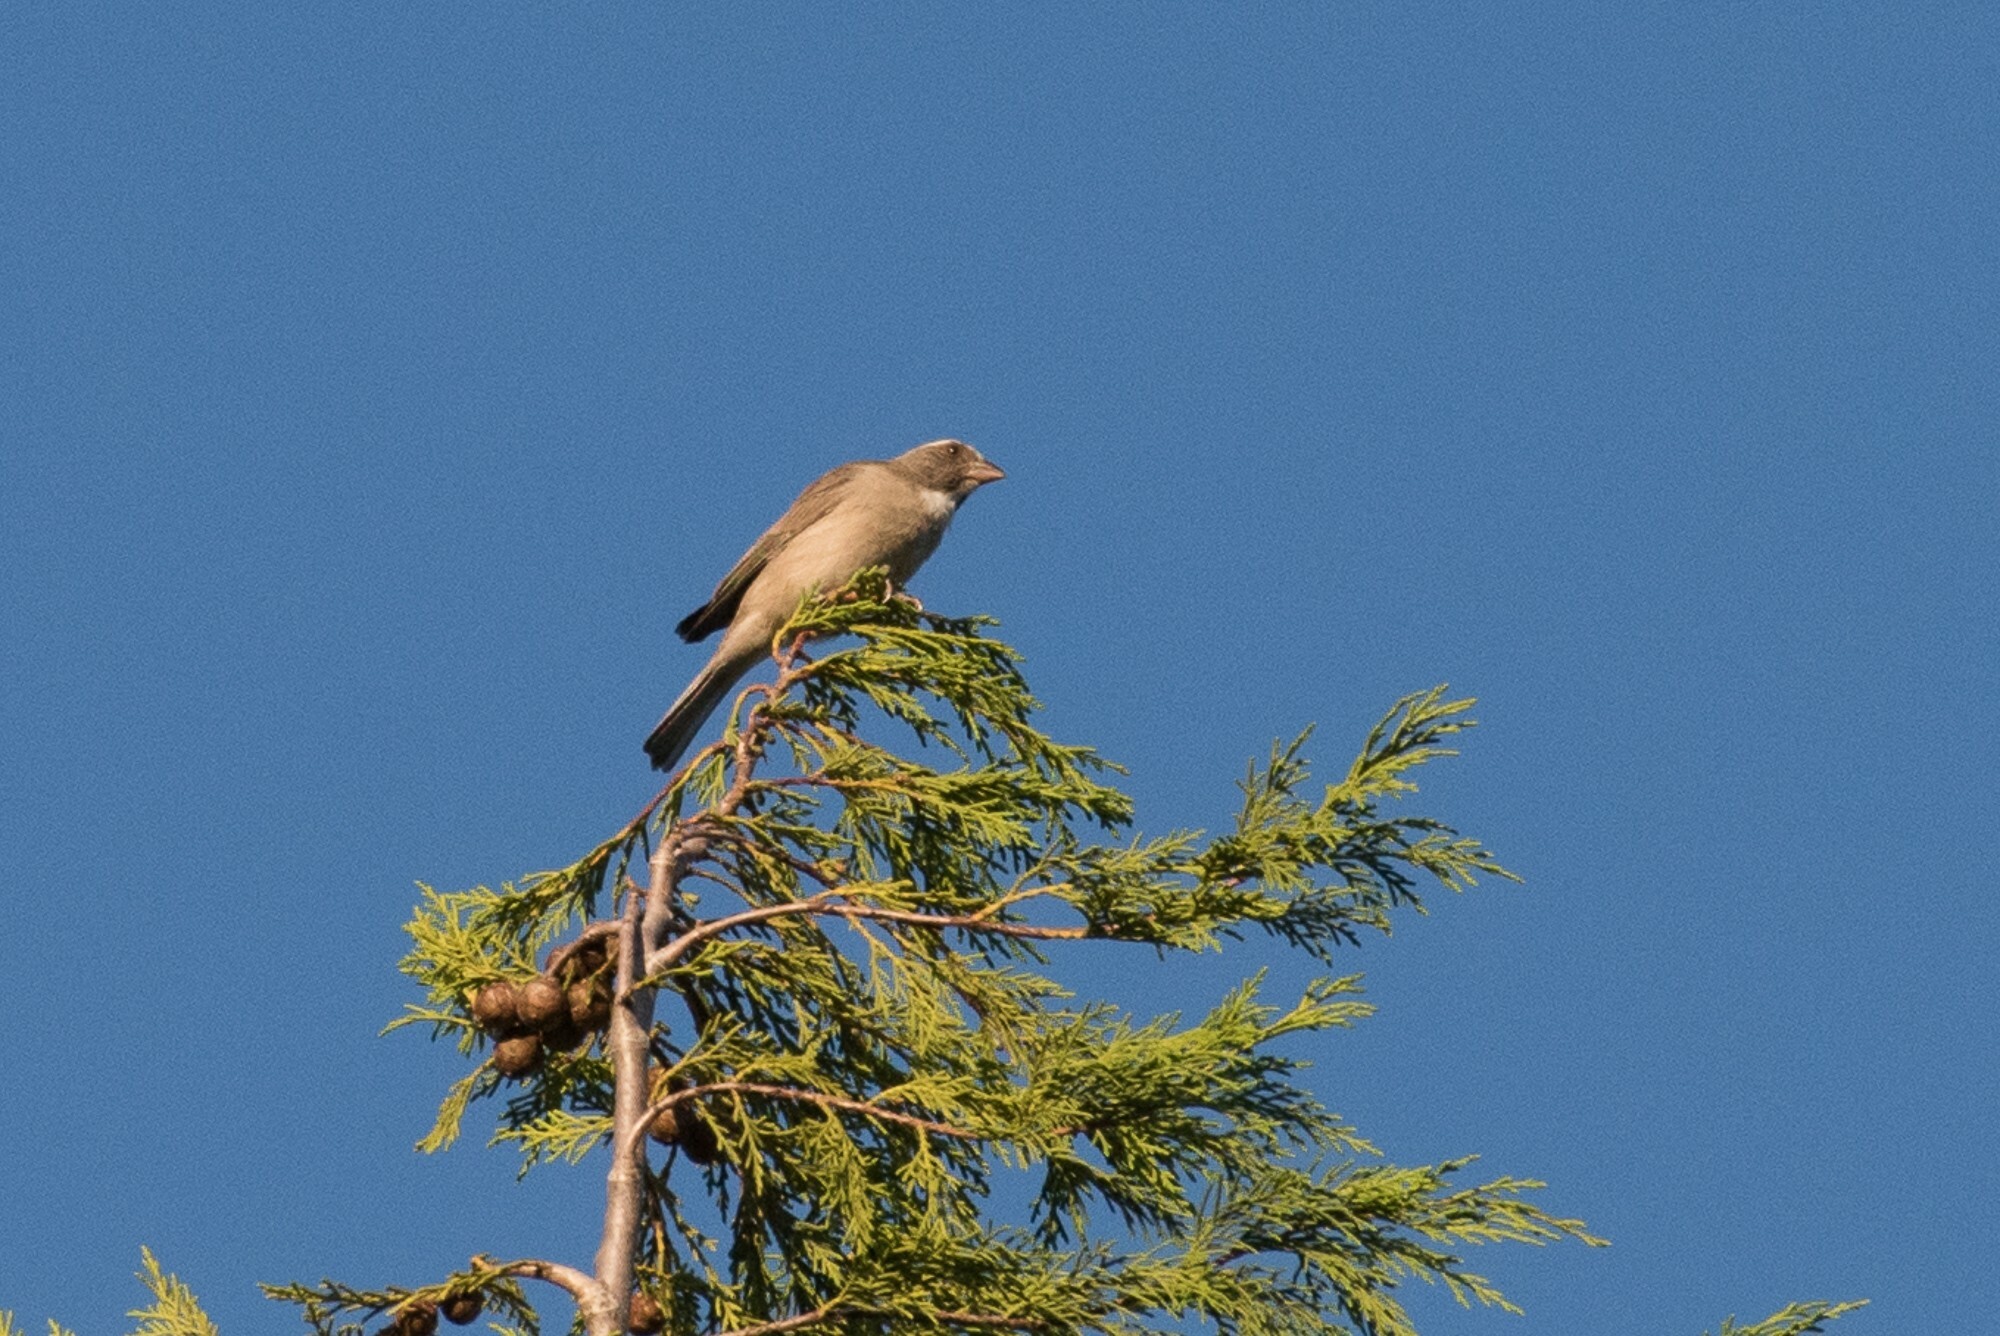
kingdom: Animalia
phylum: Chordata
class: Aves
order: Passeriformes
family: Fringillidae
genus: Crithagra
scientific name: Crithagra gularis
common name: Streaky-headed seedeater
